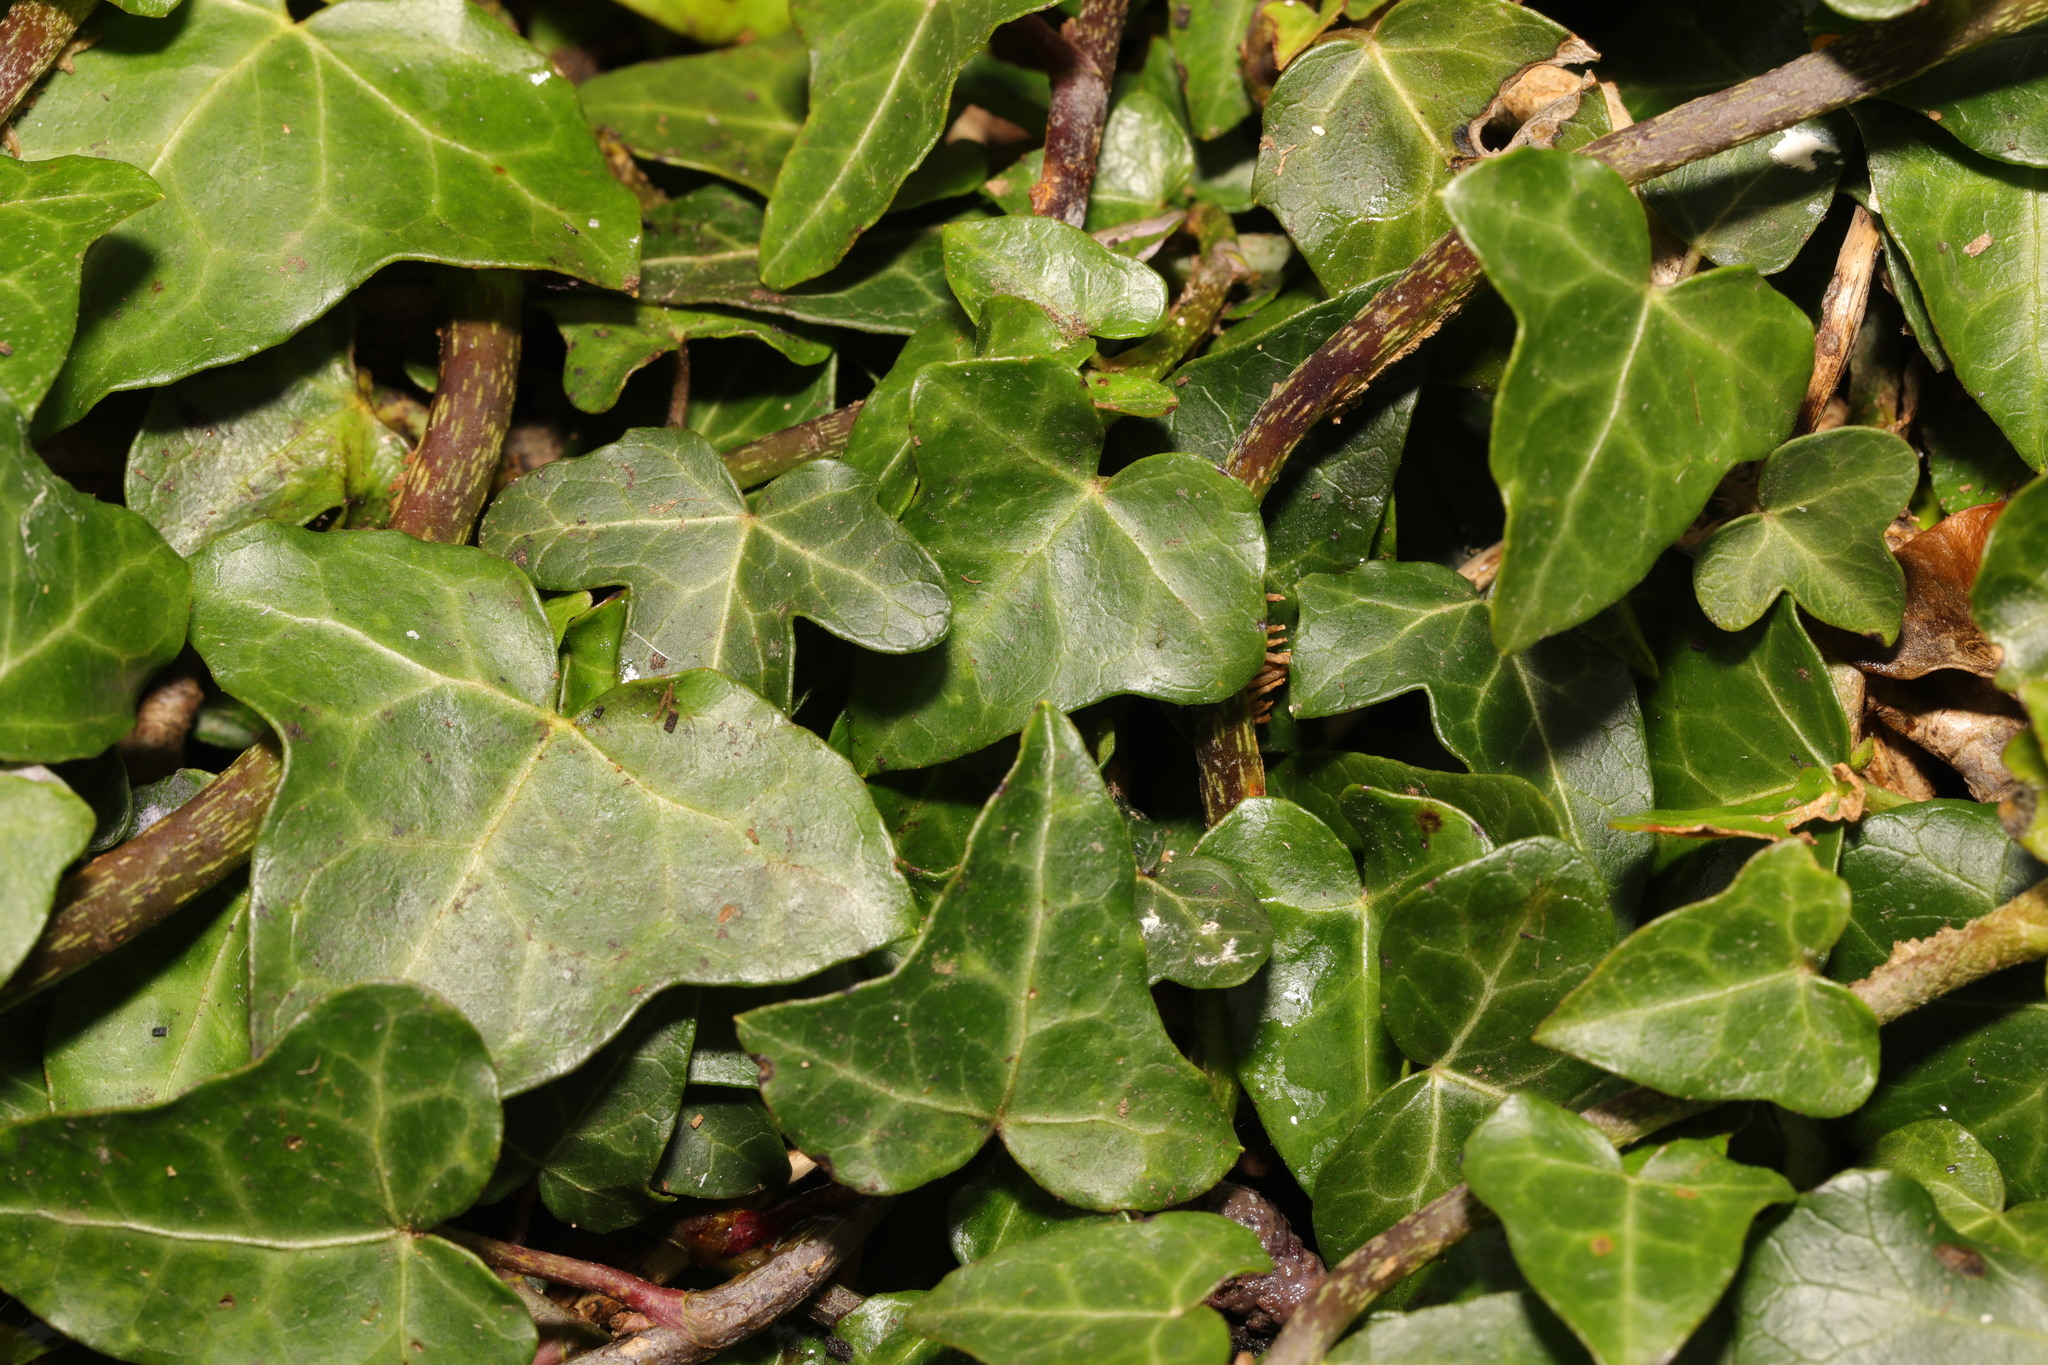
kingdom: Plantae
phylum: Tracheophyta
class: Magnoliopsida
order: Apiales
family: Araliaceae
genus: Hedera
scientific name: Hedera helix
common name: Ivy
